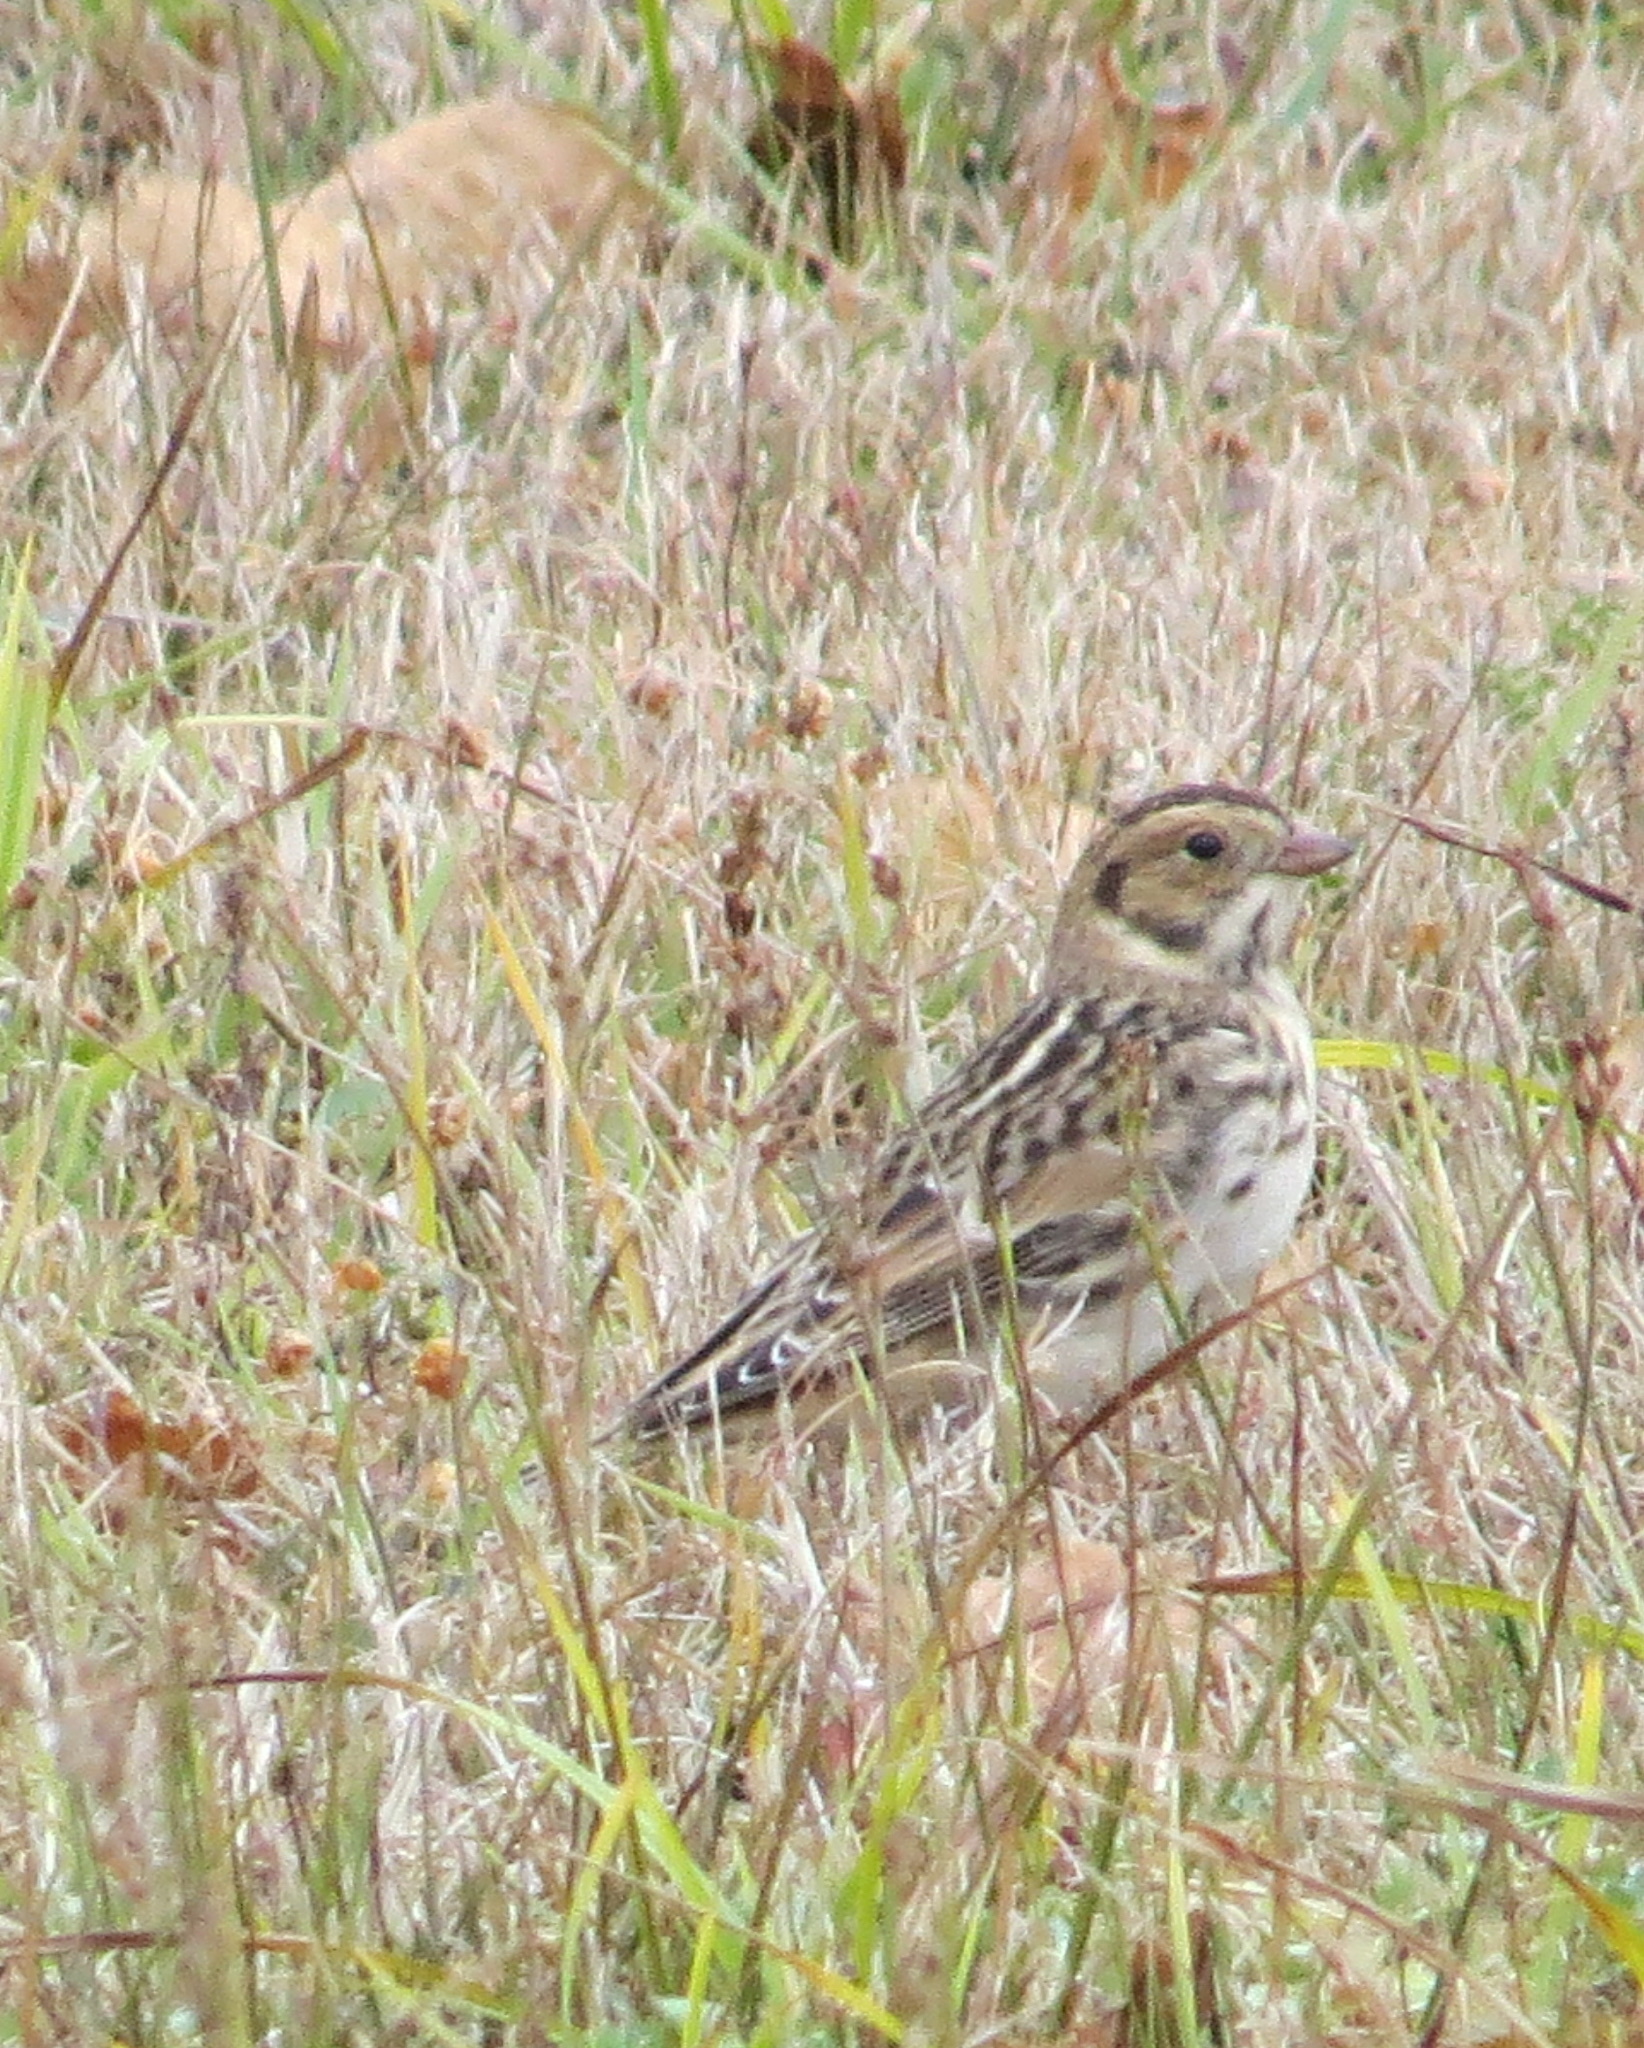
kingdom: Animalia
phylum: Chordata
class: Aves
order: Passeriformes
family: Calcariidae
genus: Calcarius
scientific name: Calcarius lapponicus
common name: Lapland longspur
